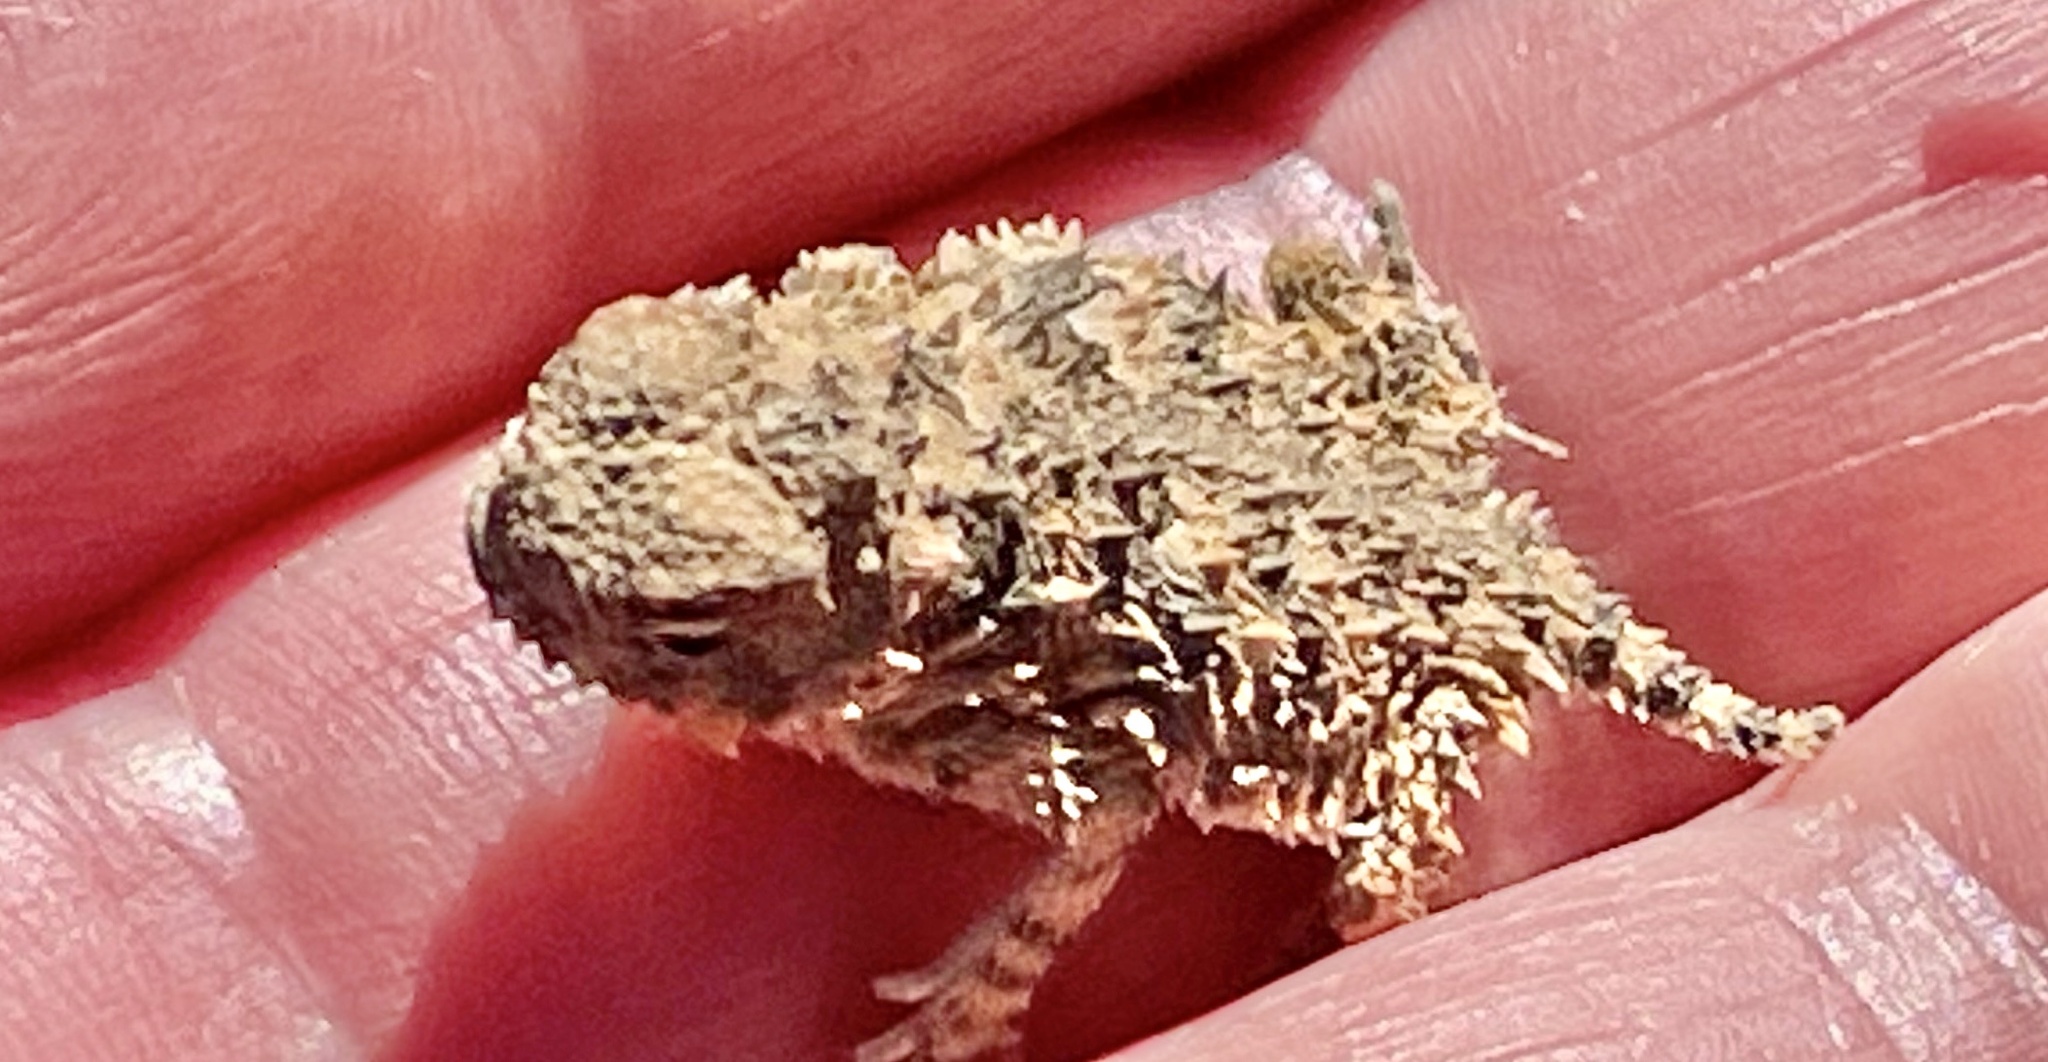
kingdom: Animalia
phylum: Chordata
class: Squamata
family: Phrynosomatidae
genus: Phrynosoma
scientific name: Phrynosoma blainvillii
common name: San diego horned lizard
